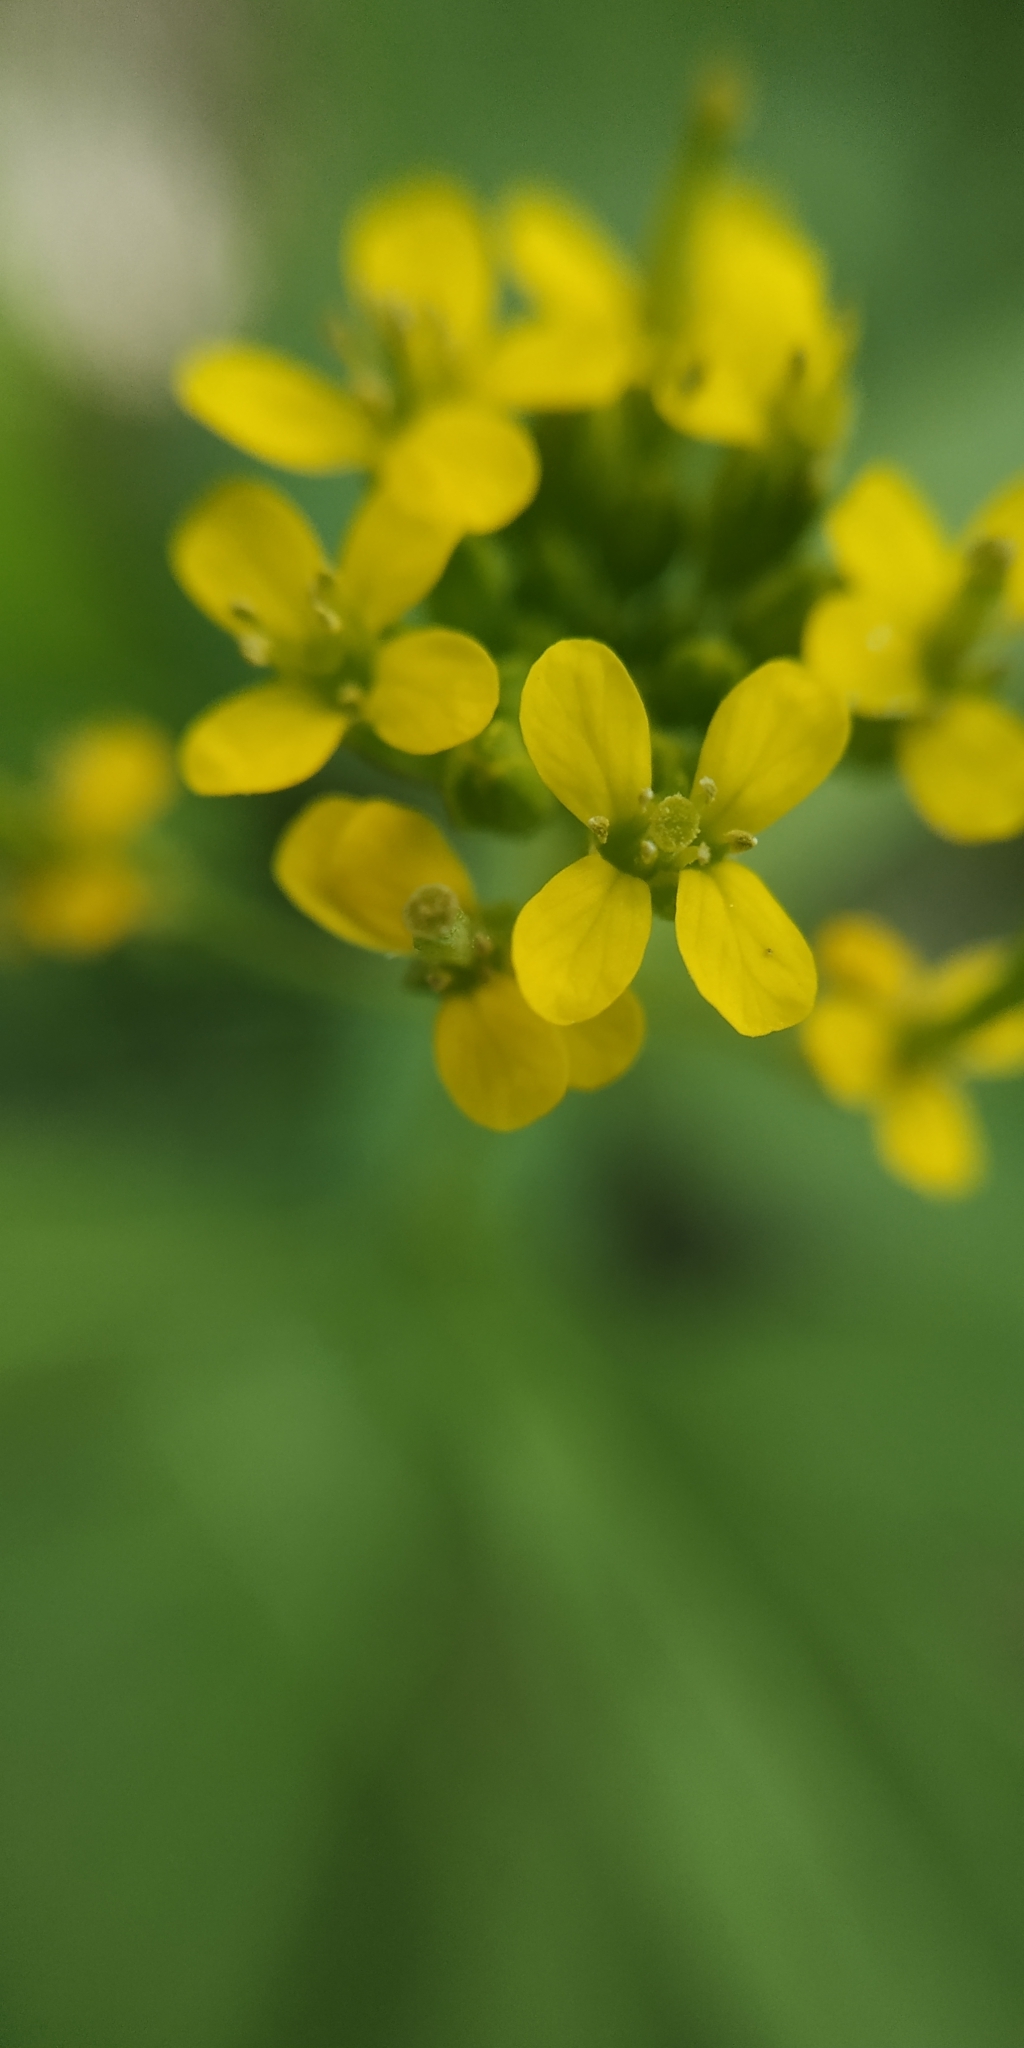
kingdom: Plantae
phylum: Tracheophyta
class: Magnoliopsida
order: Brassicales
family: Brassicaceae
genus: Erysimum
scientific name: Erysimum cheiranthoides
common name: Treacle mustard
